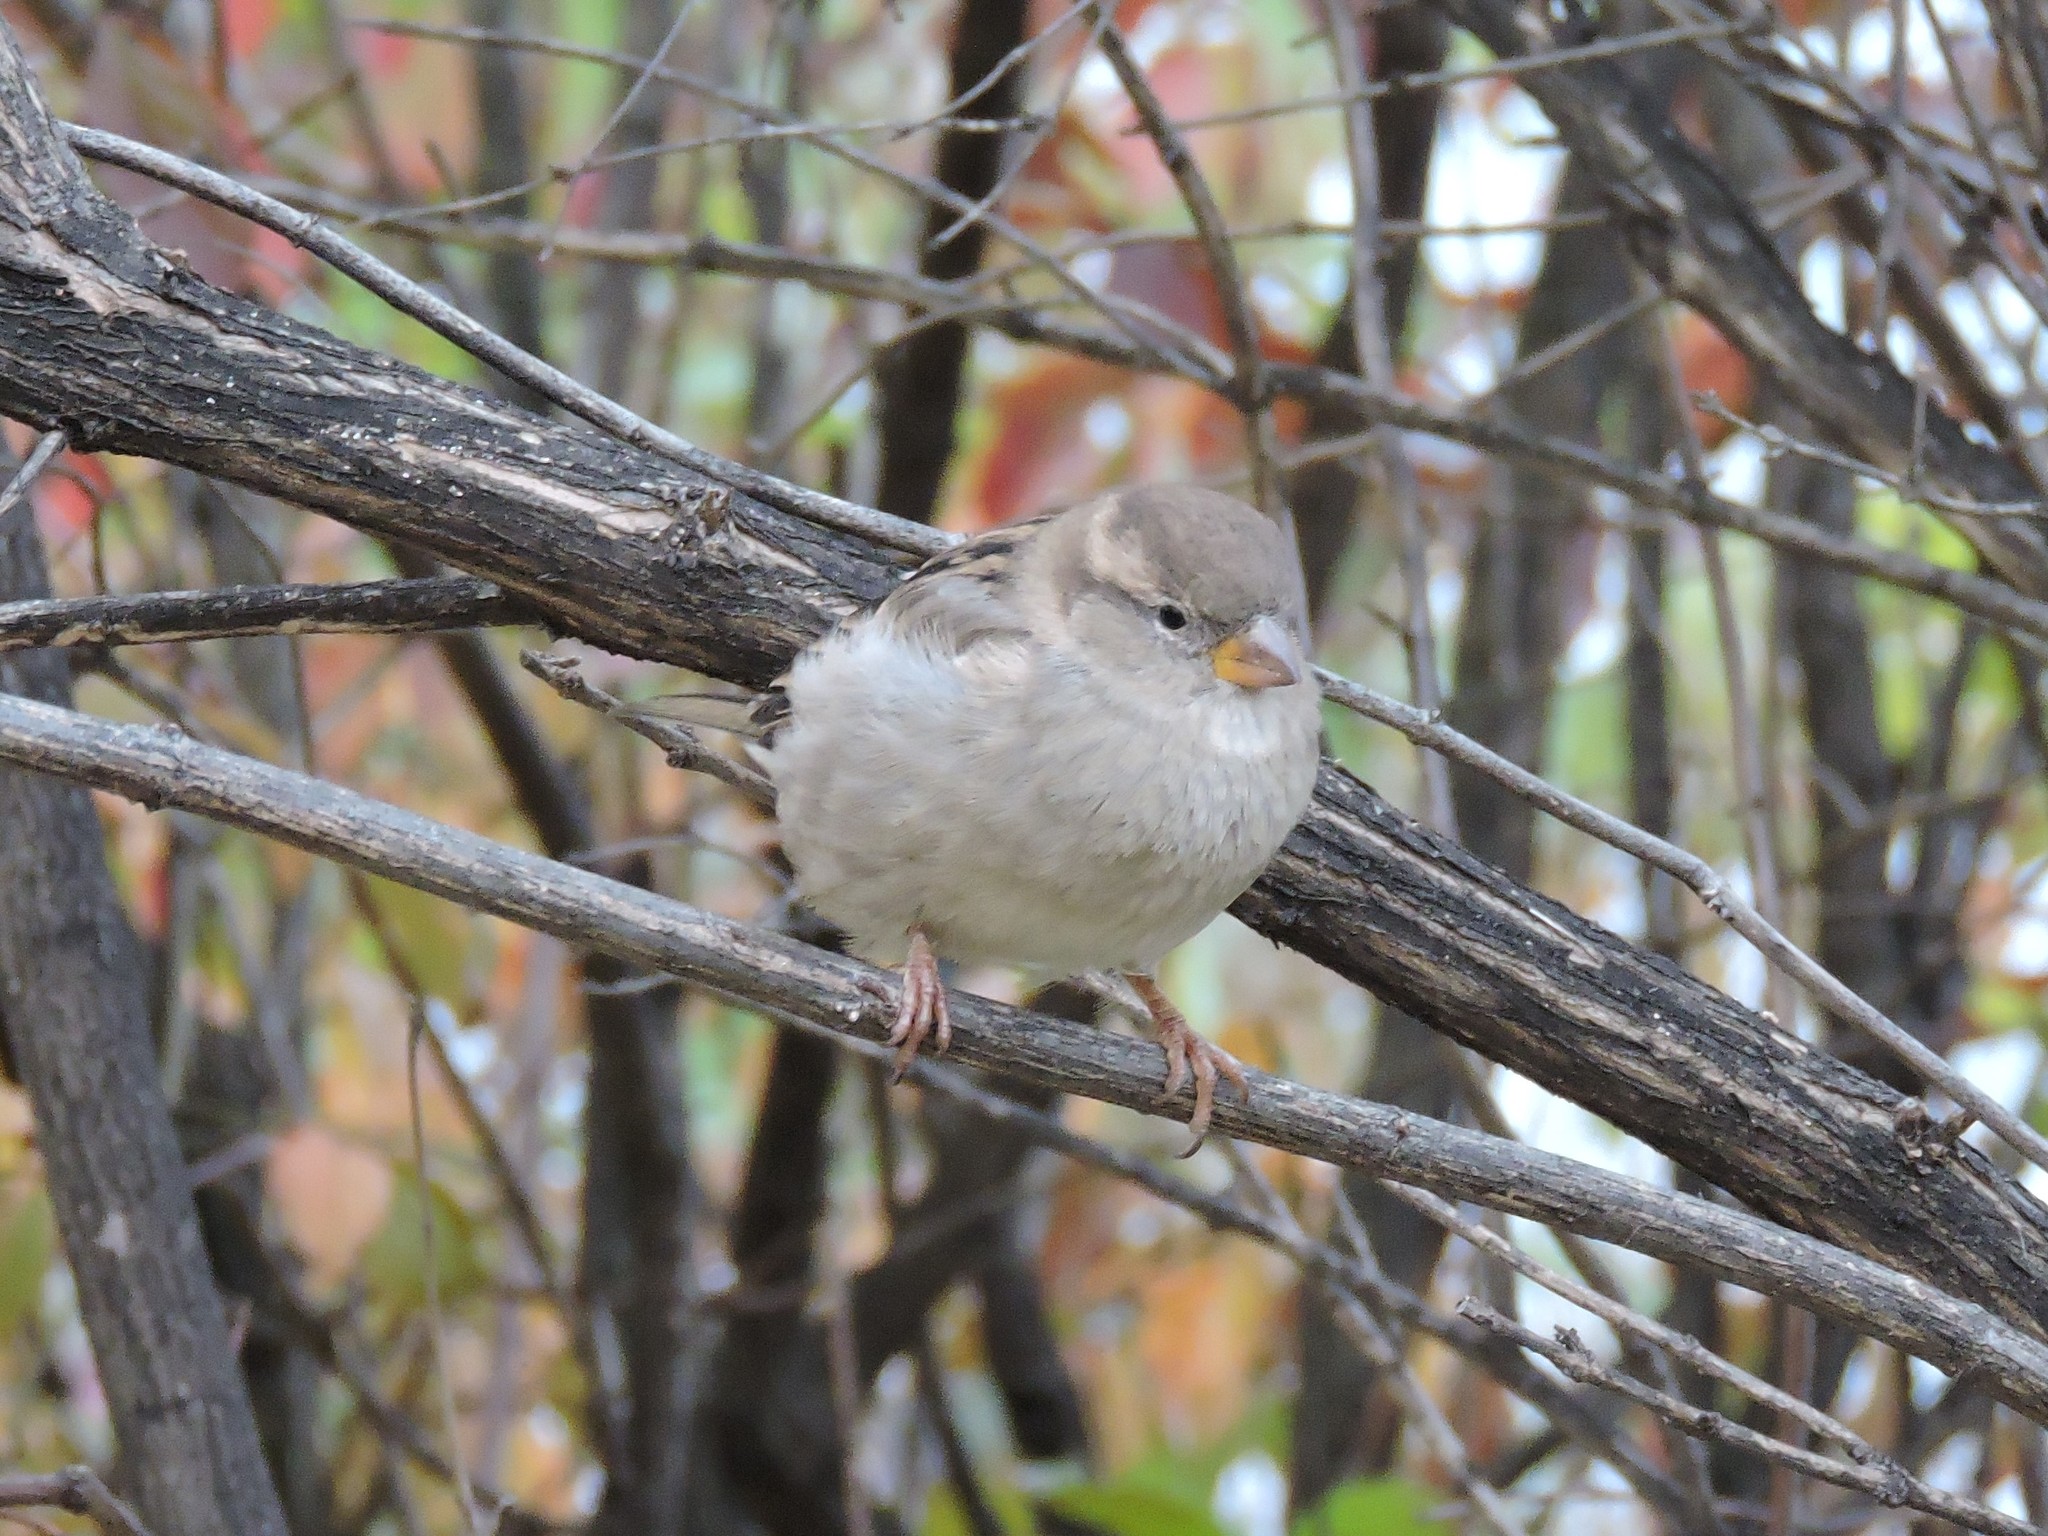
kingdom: Animalia
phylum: Chordata
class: Aves
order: Passeriformes
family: Passeridae
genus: Passer
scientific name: Passer domesticus
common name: House sparrow
